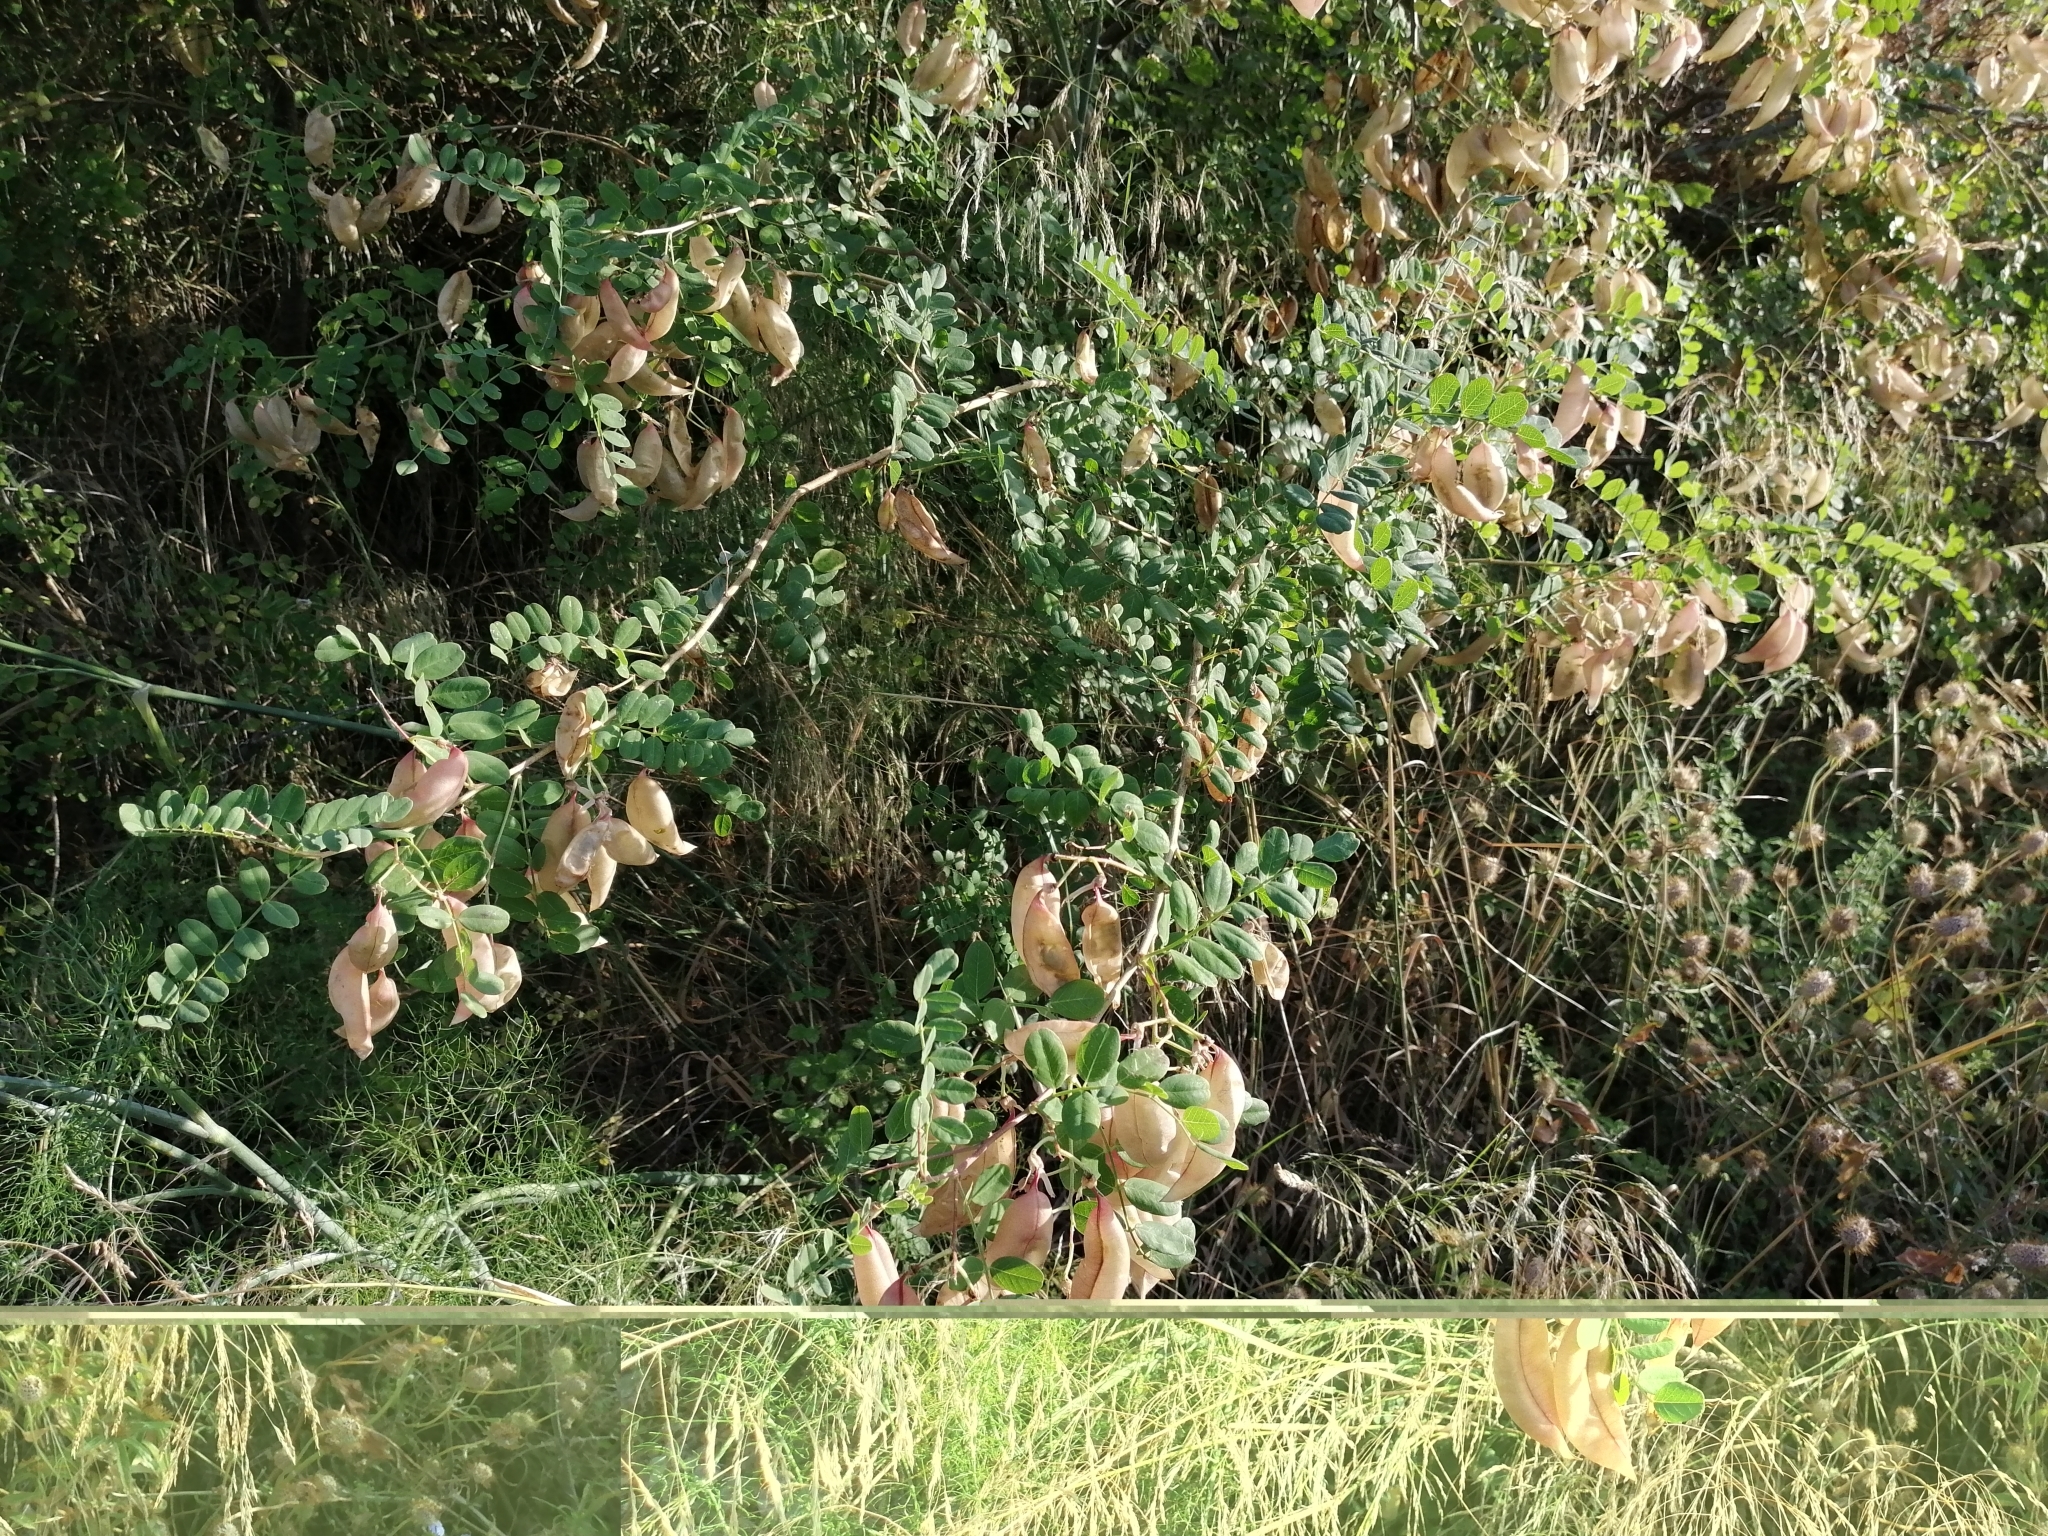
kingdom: Plantae
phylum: Tracheophyta
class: Magnoliopsida
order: Fabales
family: Fabaceae
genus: Colutea
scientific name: Colutea arborescens
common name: Bladder-senna
